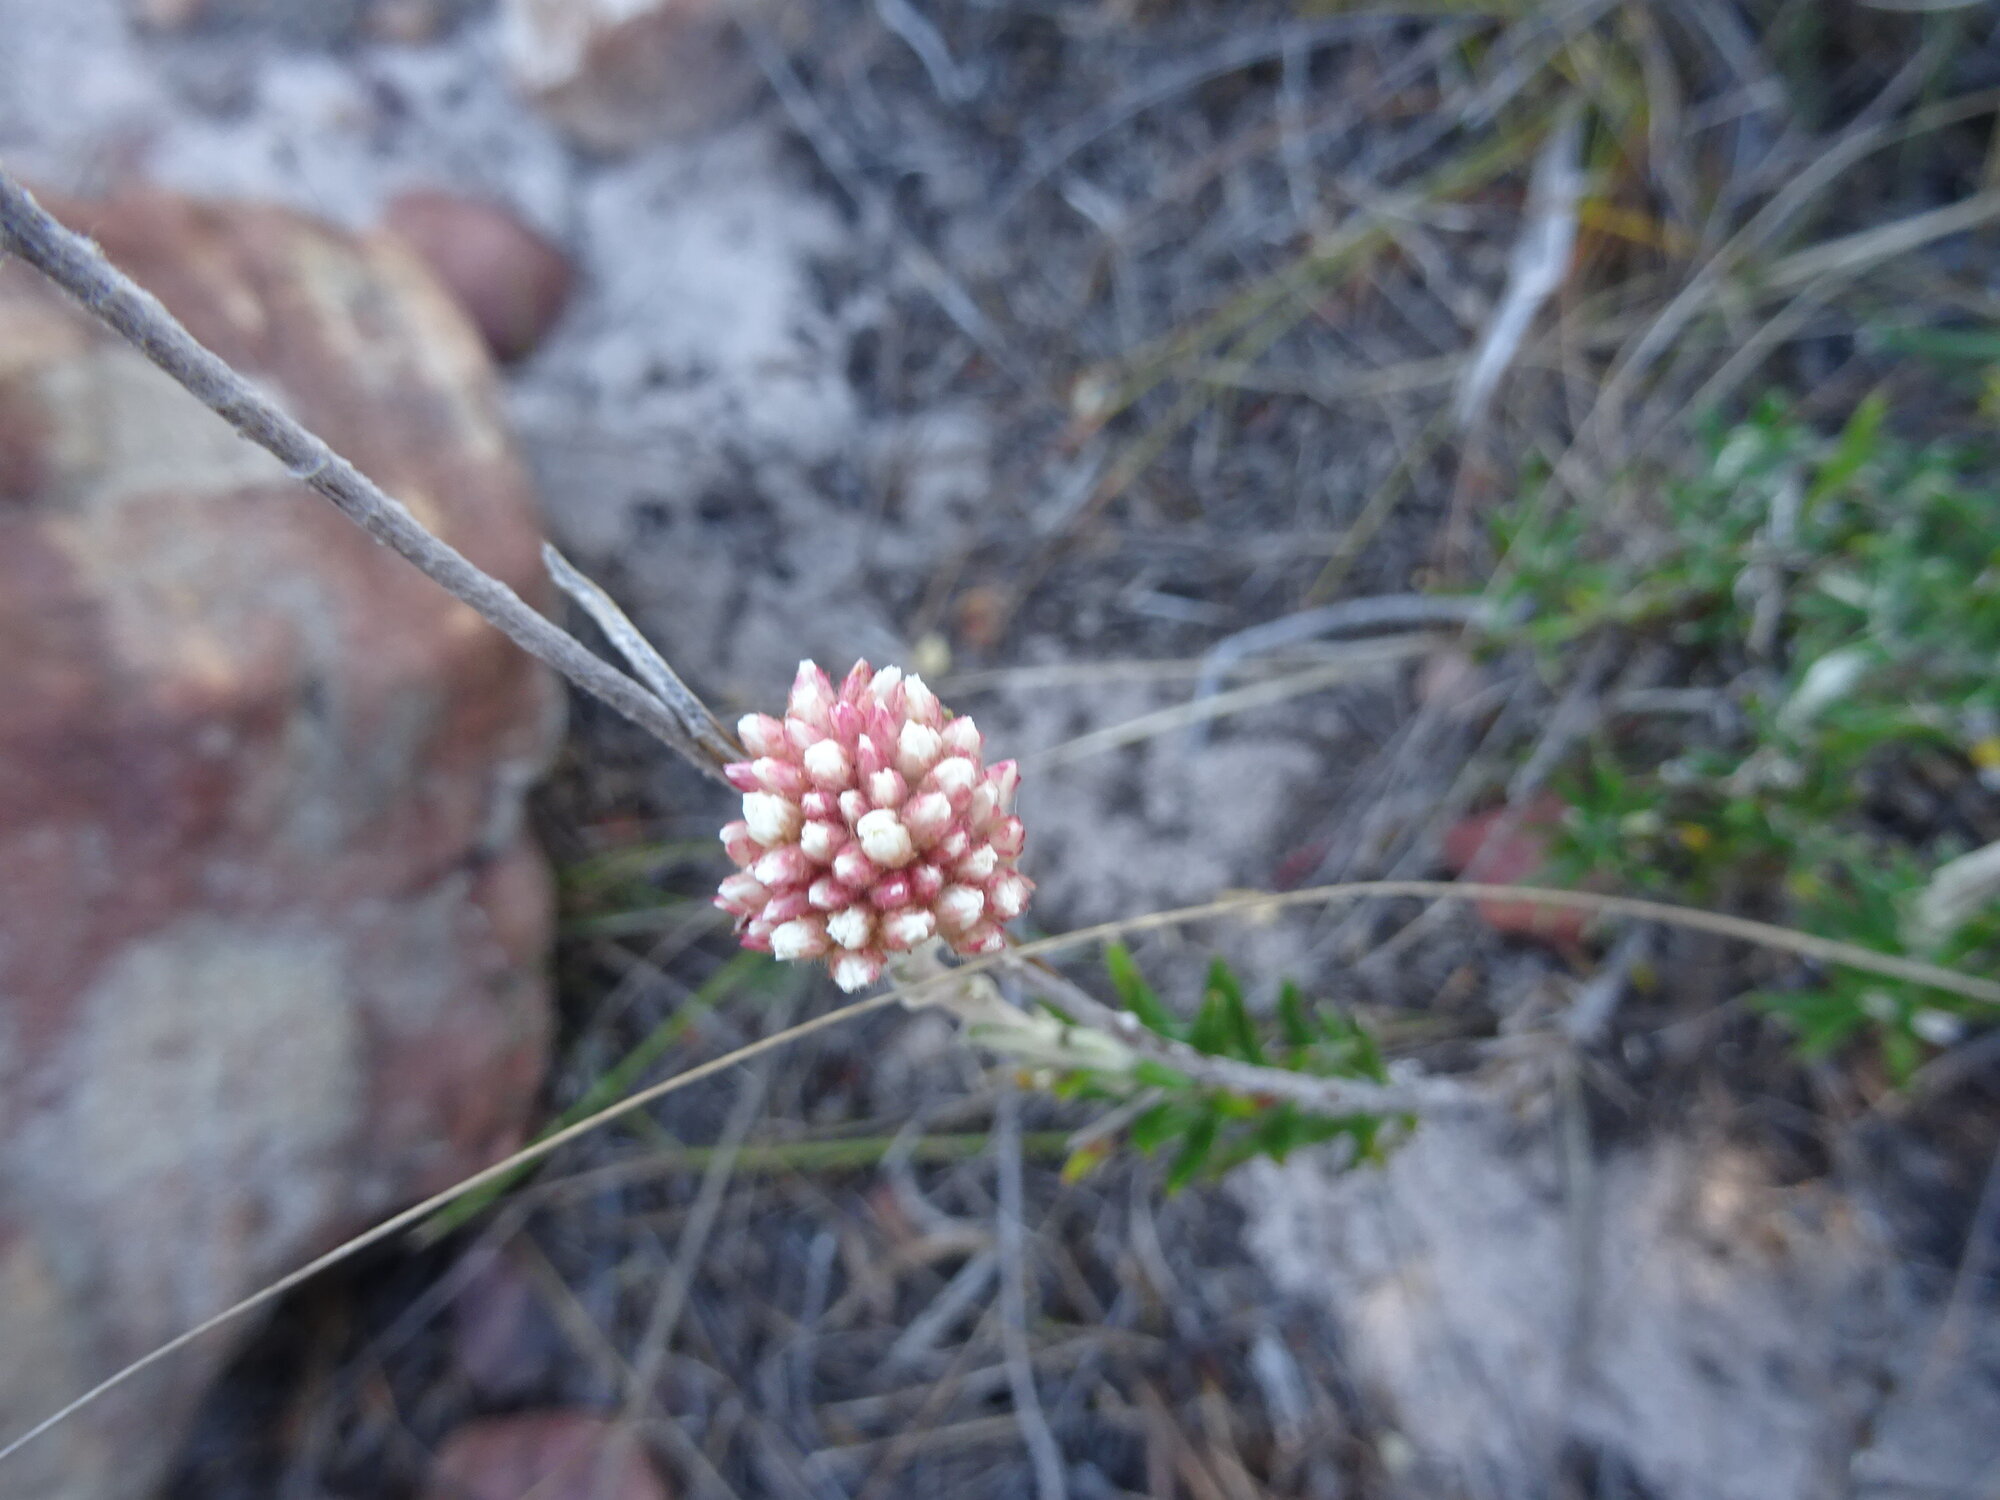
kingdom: Plantae
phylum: Tracheophyta
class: Magnoliopsida
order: Asterales
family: Asteraceae
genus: Anaxeton
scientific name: Anaxeton laeve
